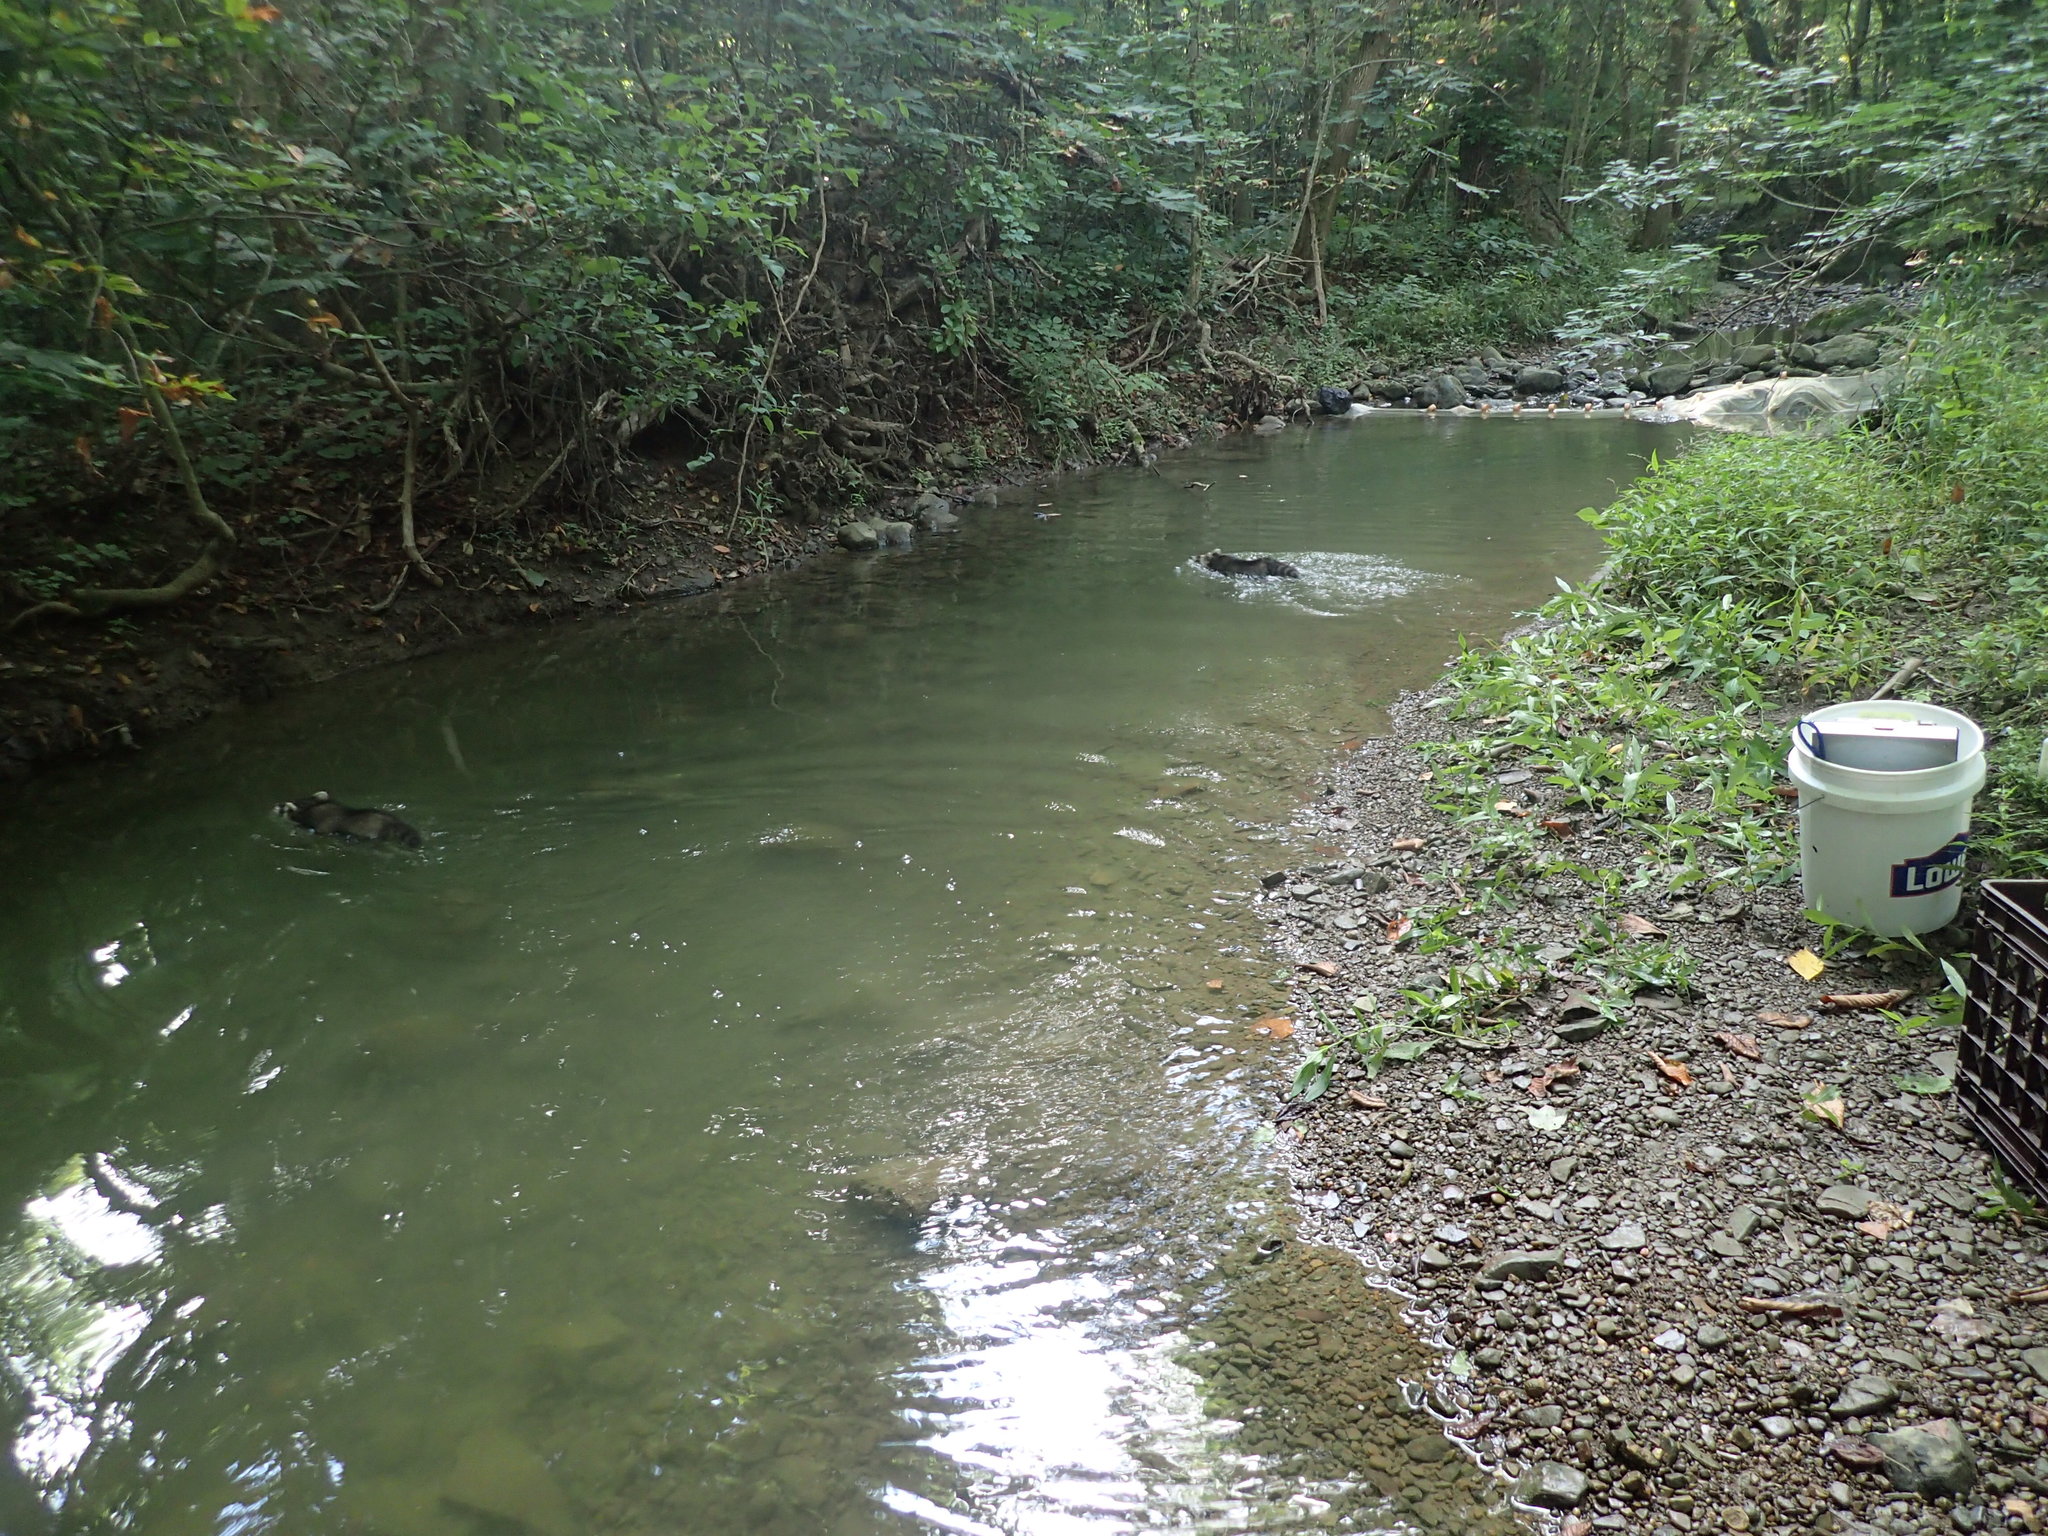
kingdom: Animalia
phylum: Chordata
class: Mammalia
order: Carnivora
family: Procyonidae
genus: Procyon
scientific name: Procyon lotor
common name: Raccoon
